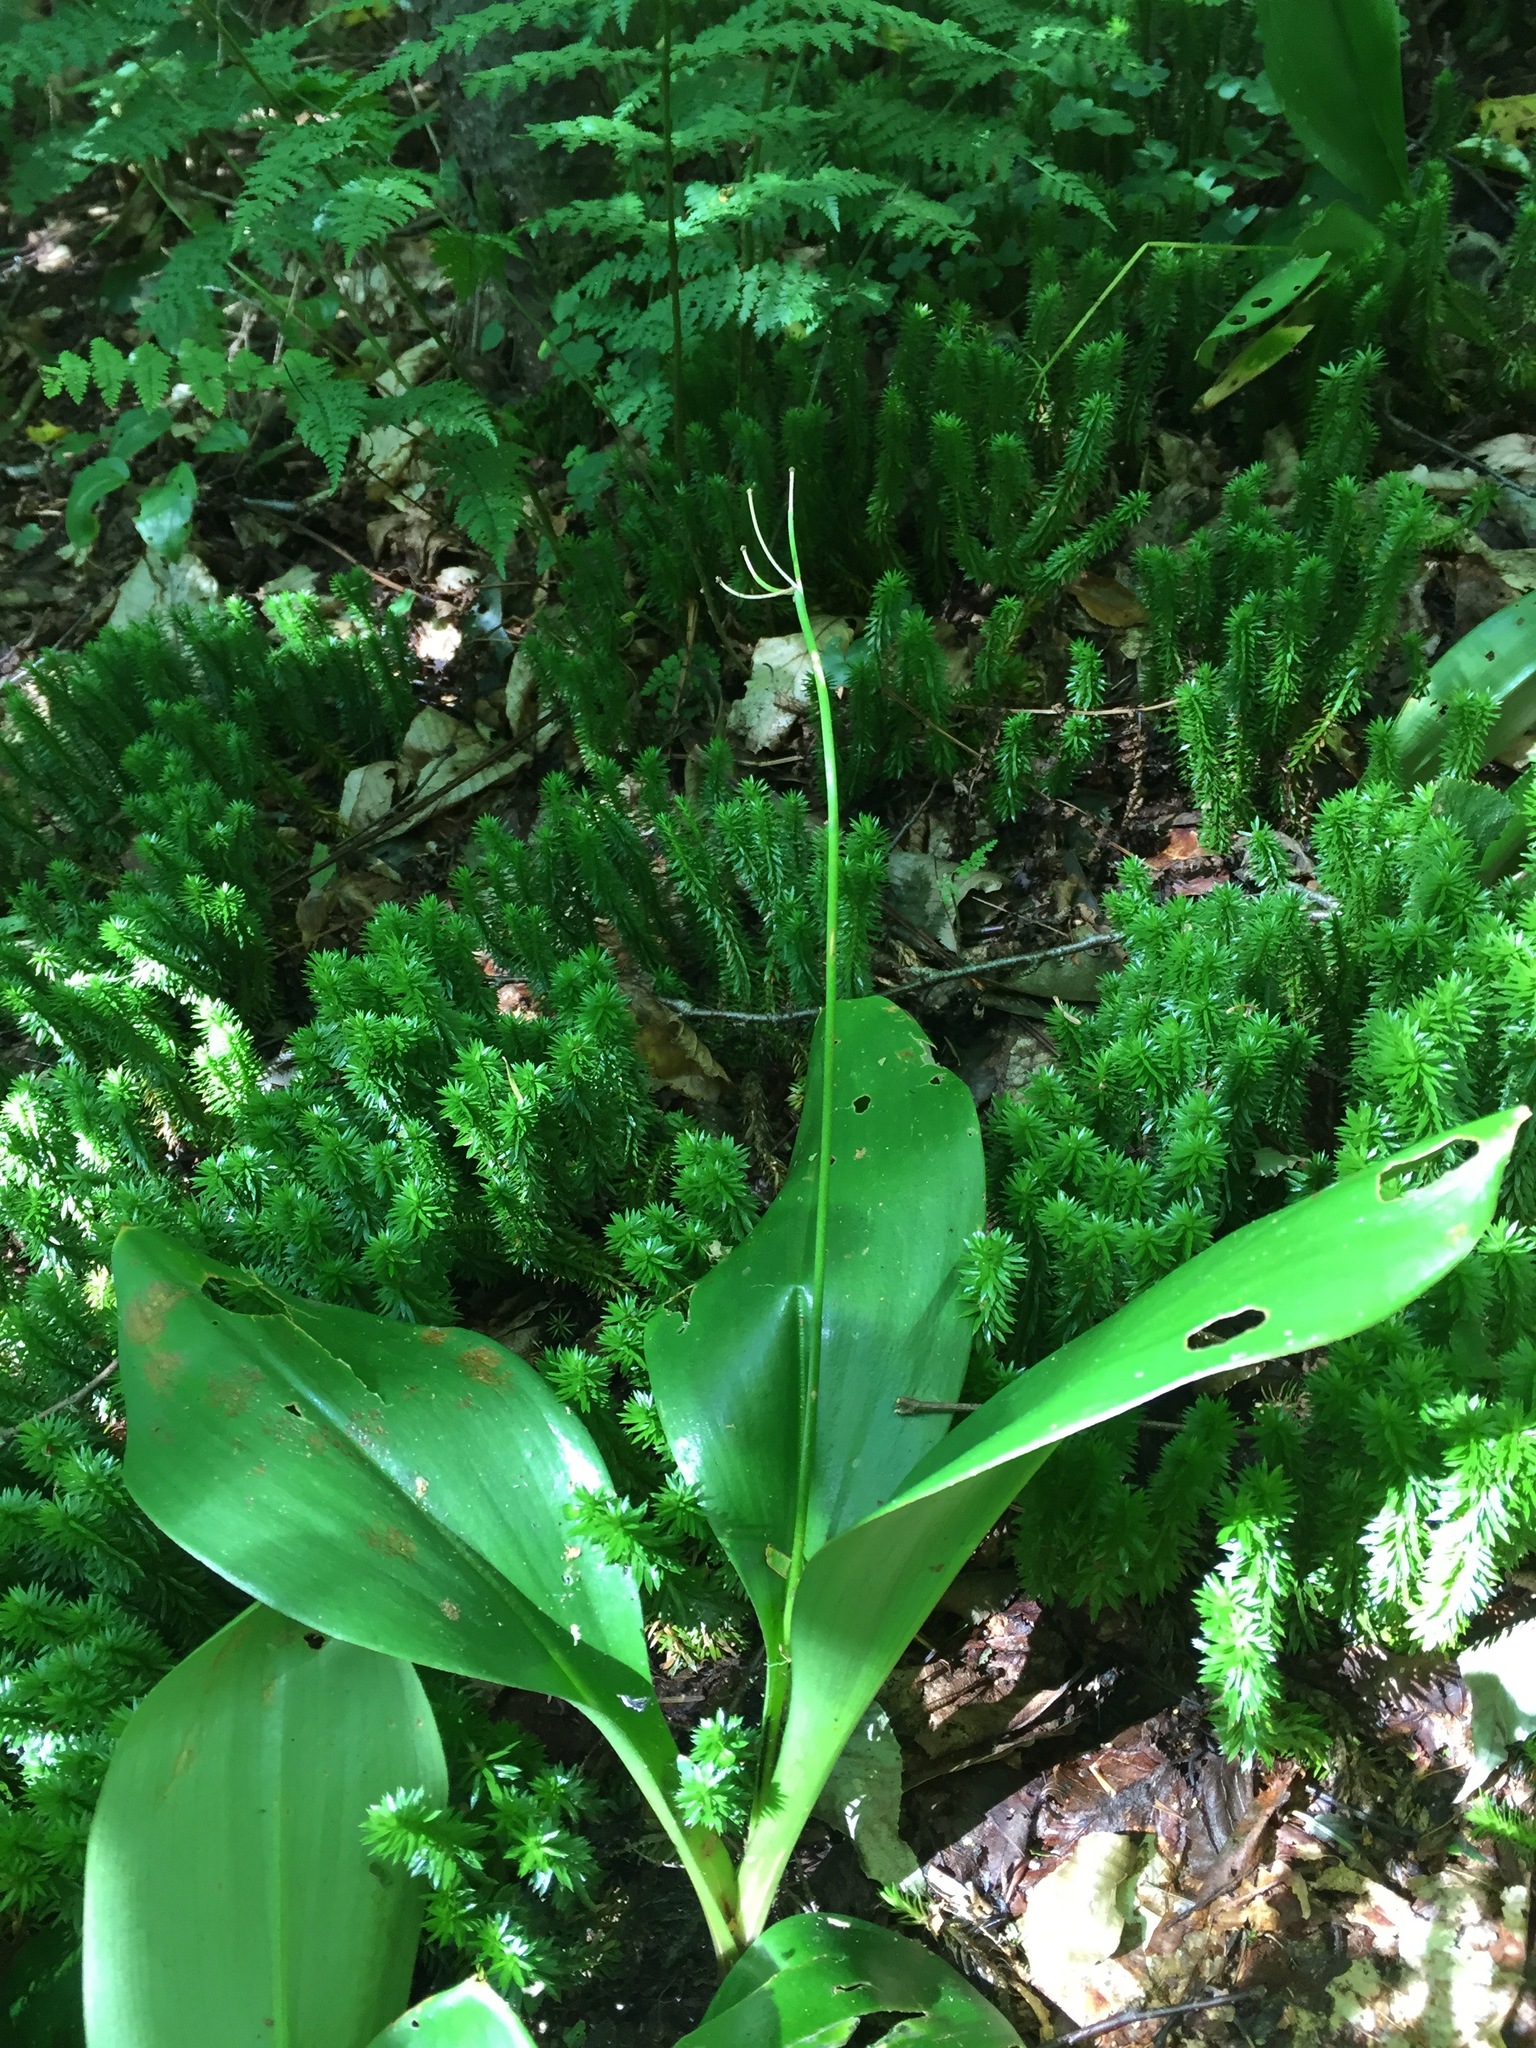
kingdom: Plantae
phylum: Tracheophyta
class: Liliopsida
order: Liliales
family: Liliaceae
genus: Clintonia
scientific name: Clintonia borealis
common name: Yellow clintonia
